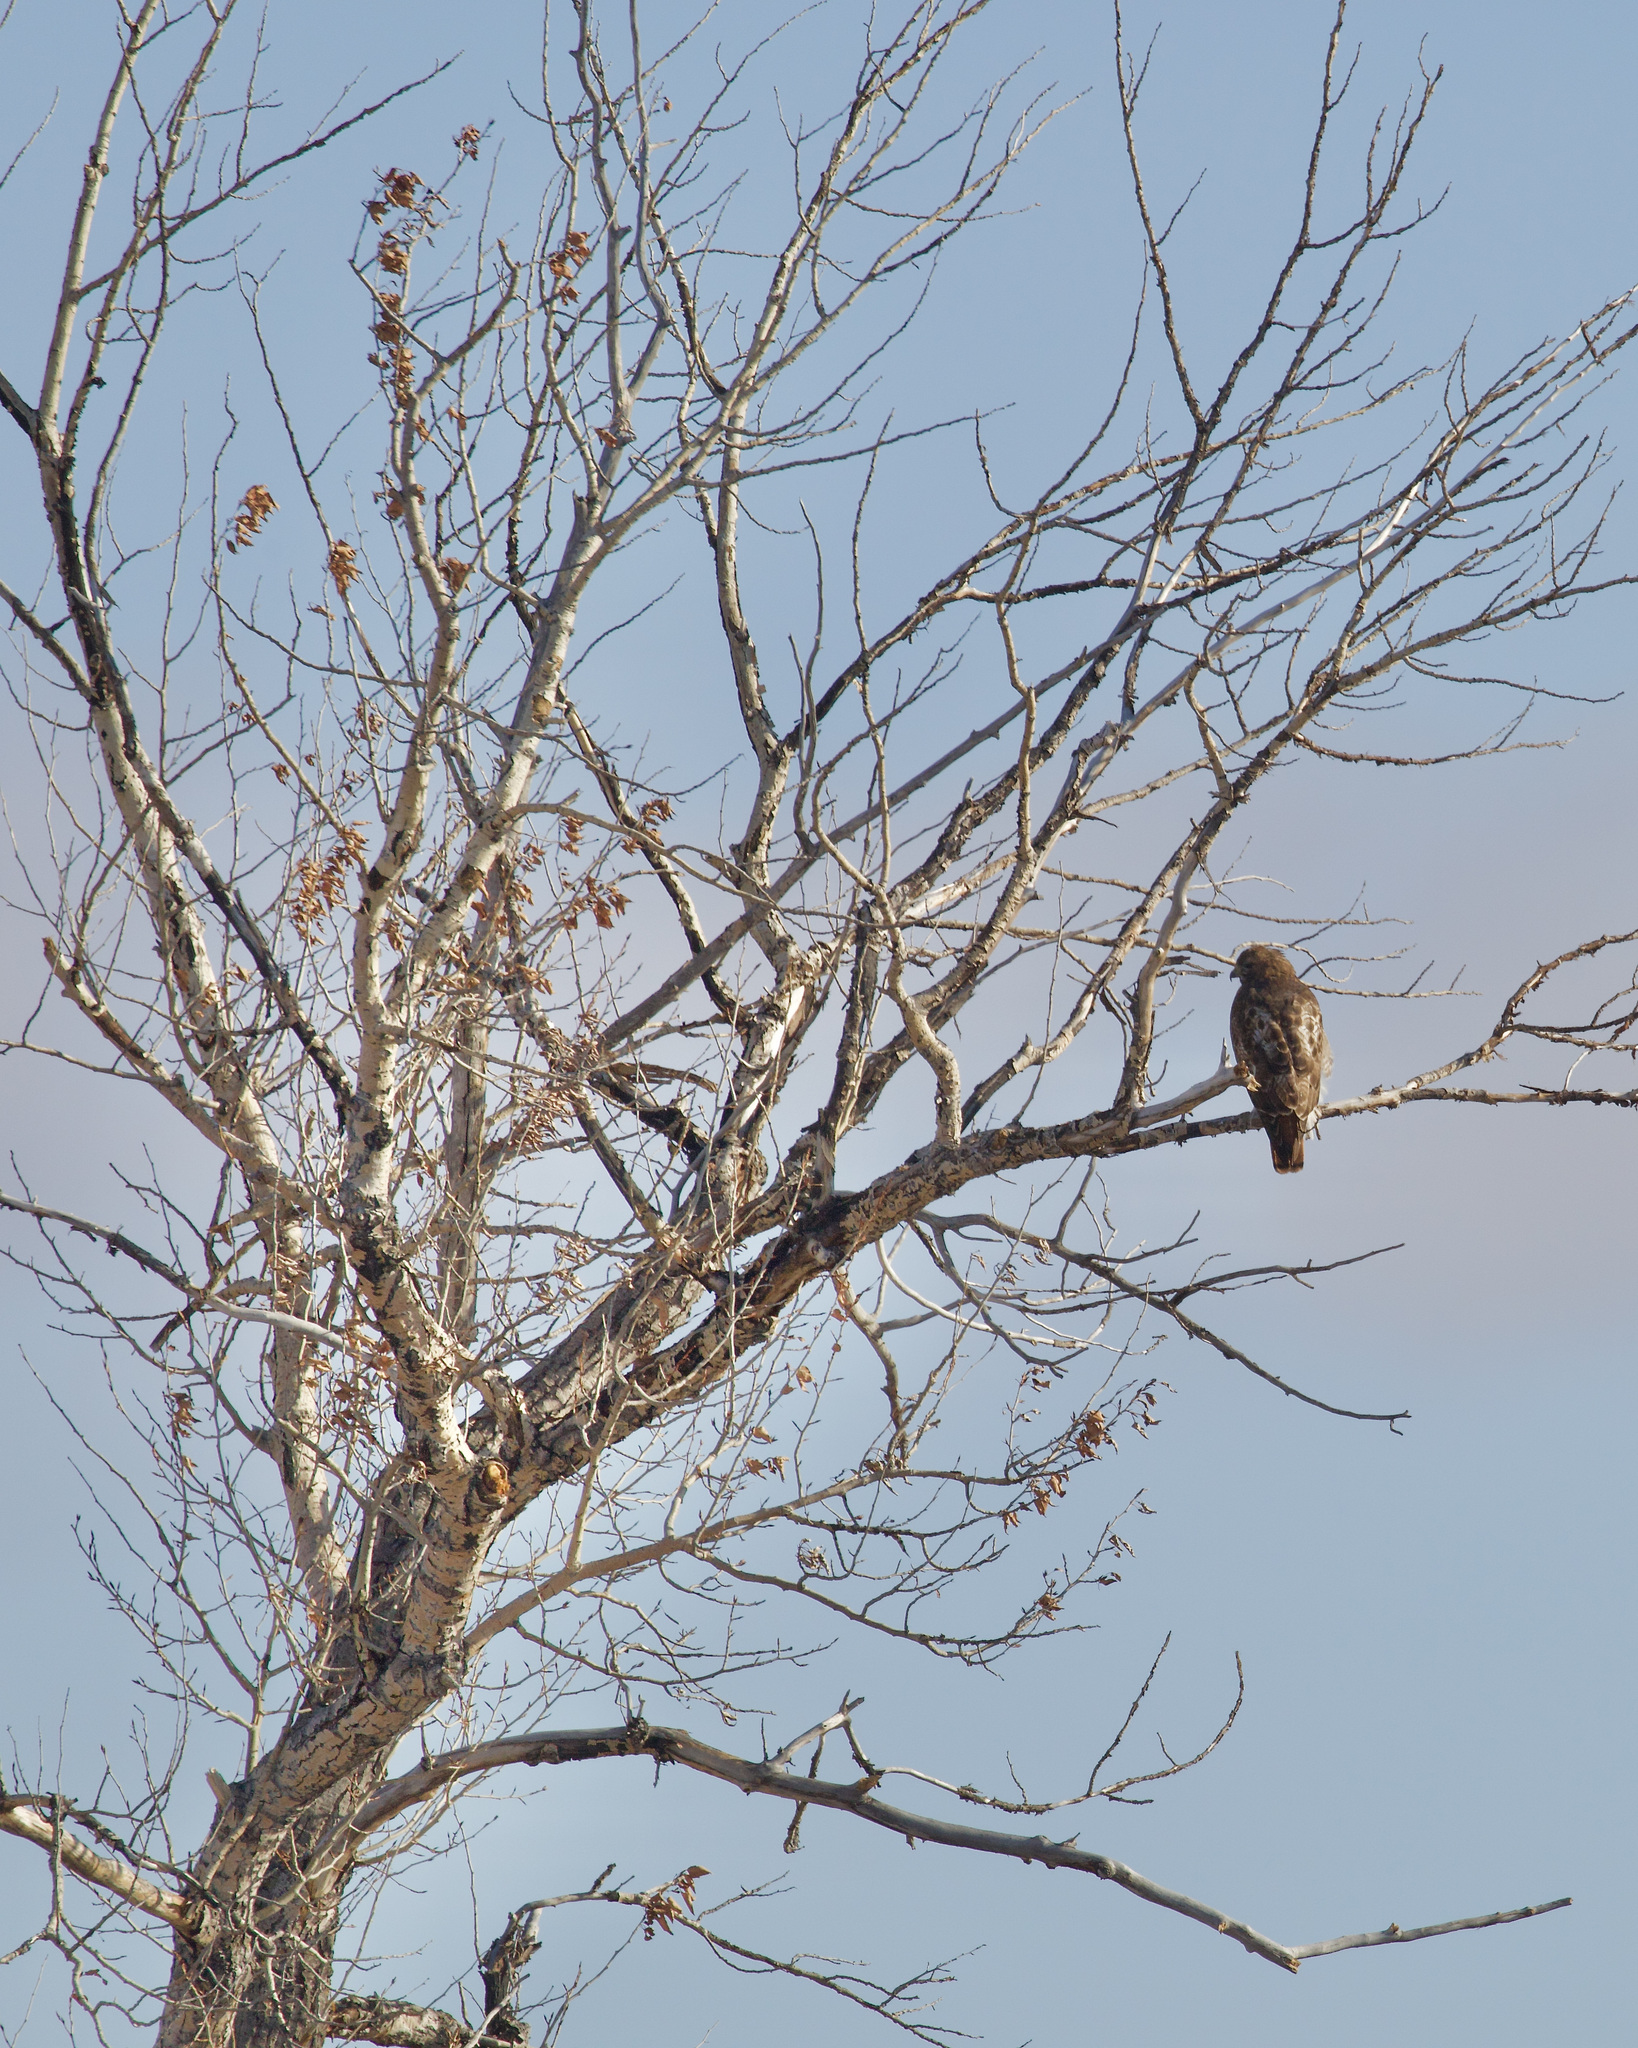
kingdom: Animalia
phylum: Chordata
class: Aves
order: Accipitriformes
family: Accipitridae
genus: Buteo
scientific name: Buteo jamaicensis
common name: Red-tailed hawk
